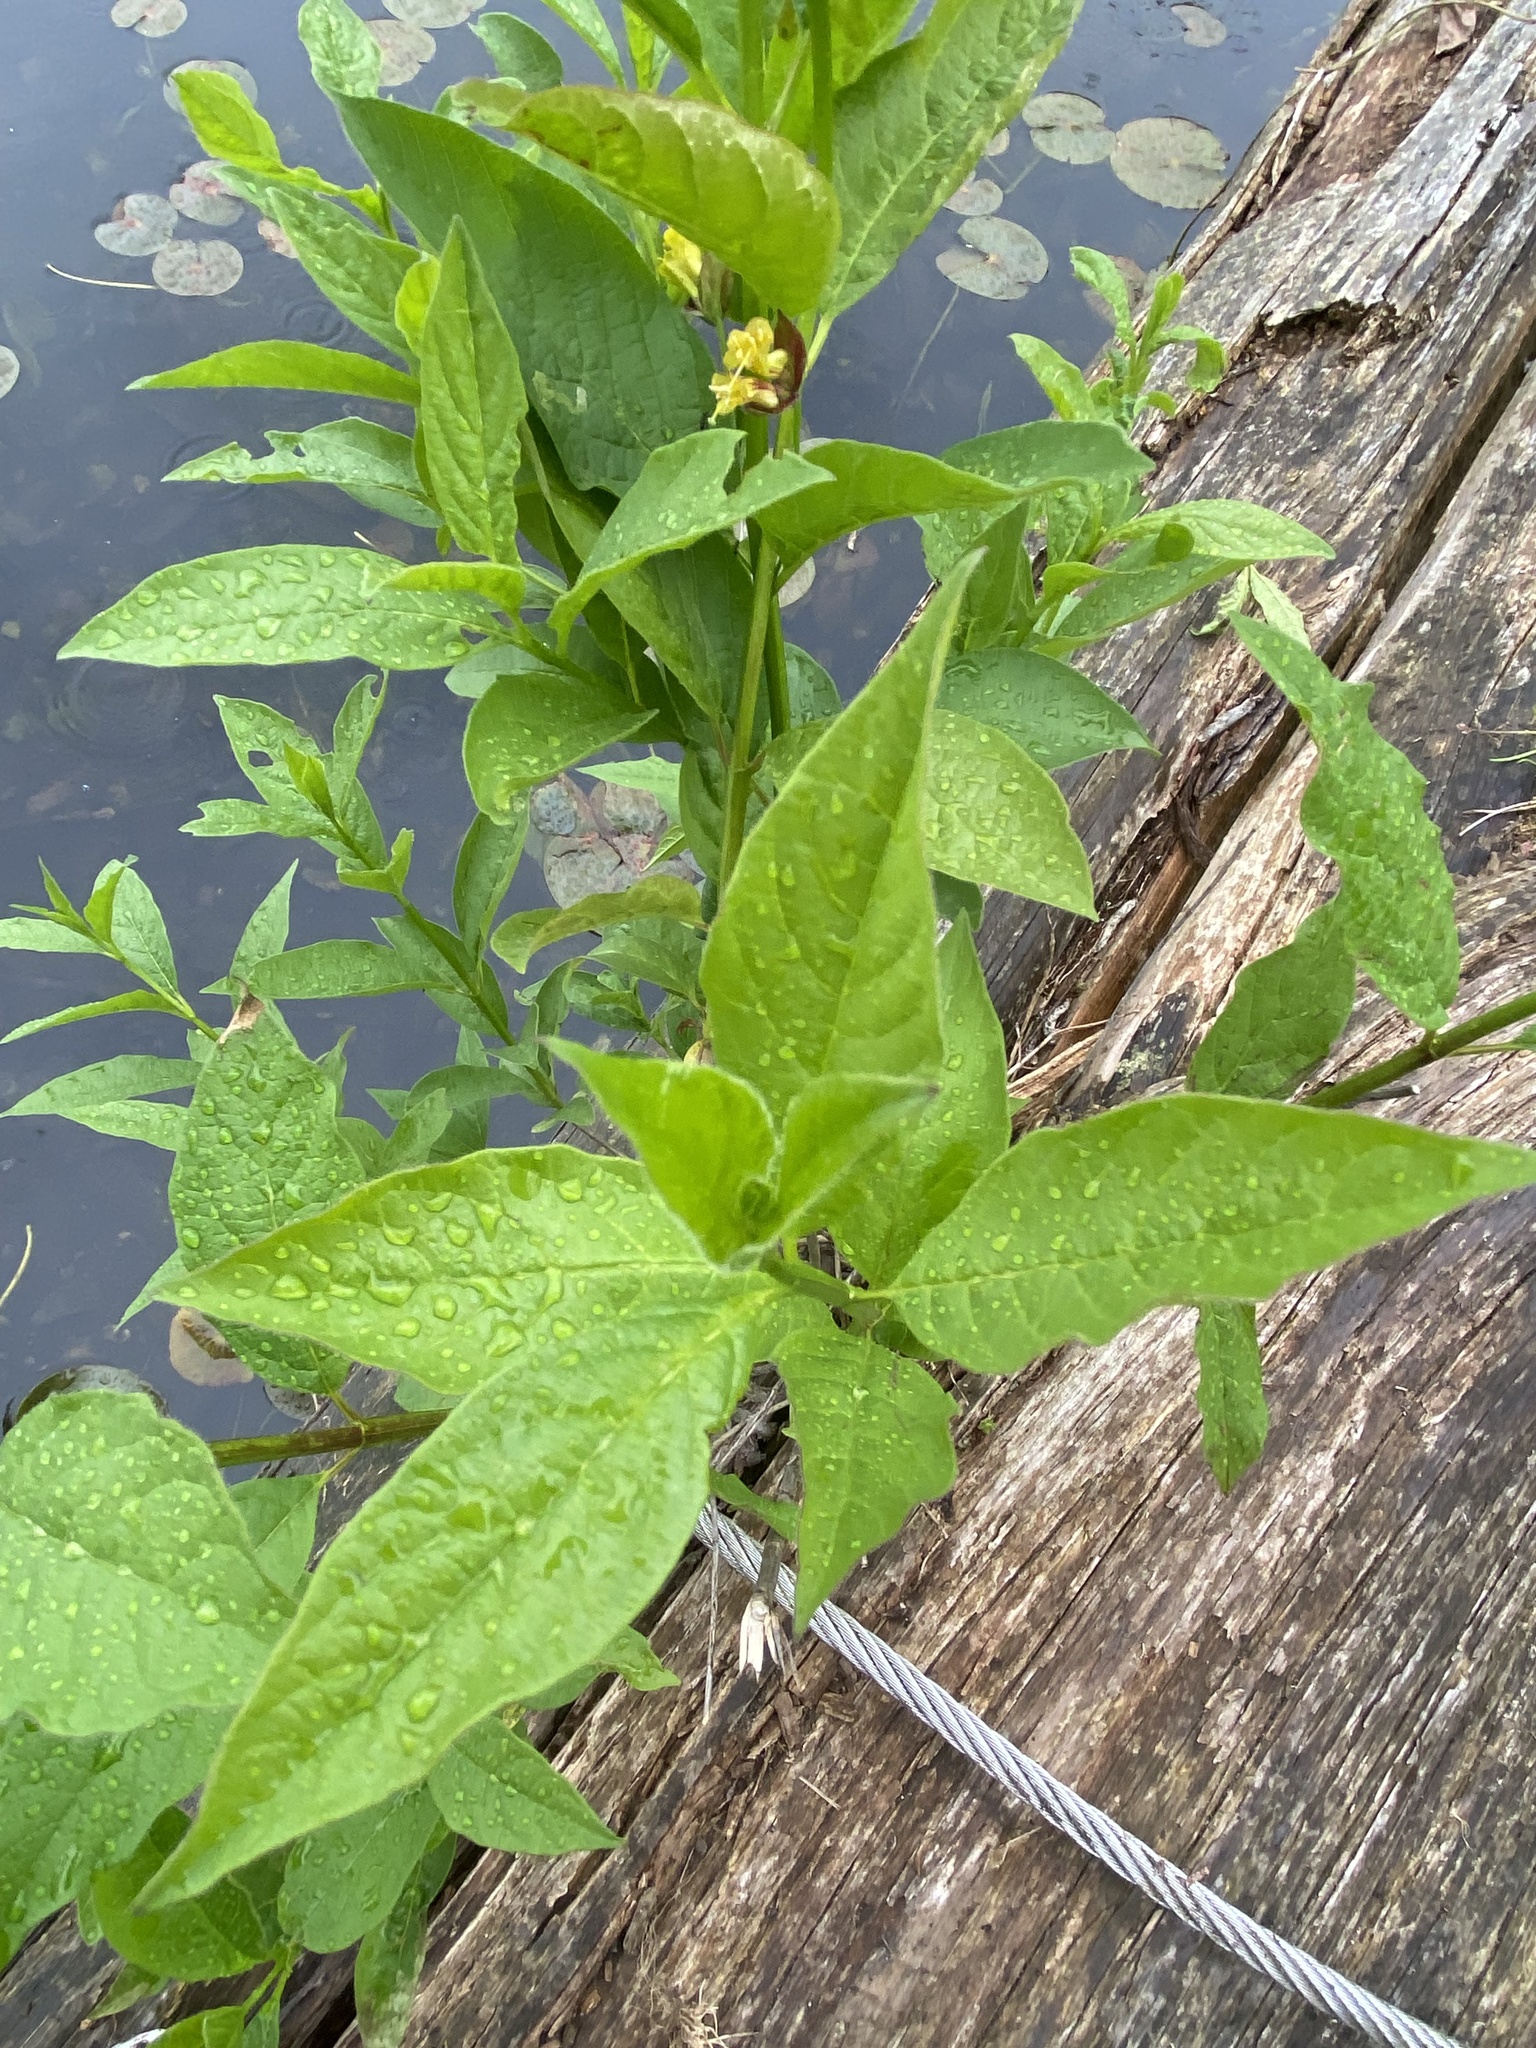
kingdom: Plantae
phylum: Tracheophyta
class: Magnoliopsida
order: Dipsacales
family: Caprifoliaceae
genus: Lonicera
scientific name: Lonicera involucrata
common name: Californian honeysuckle
